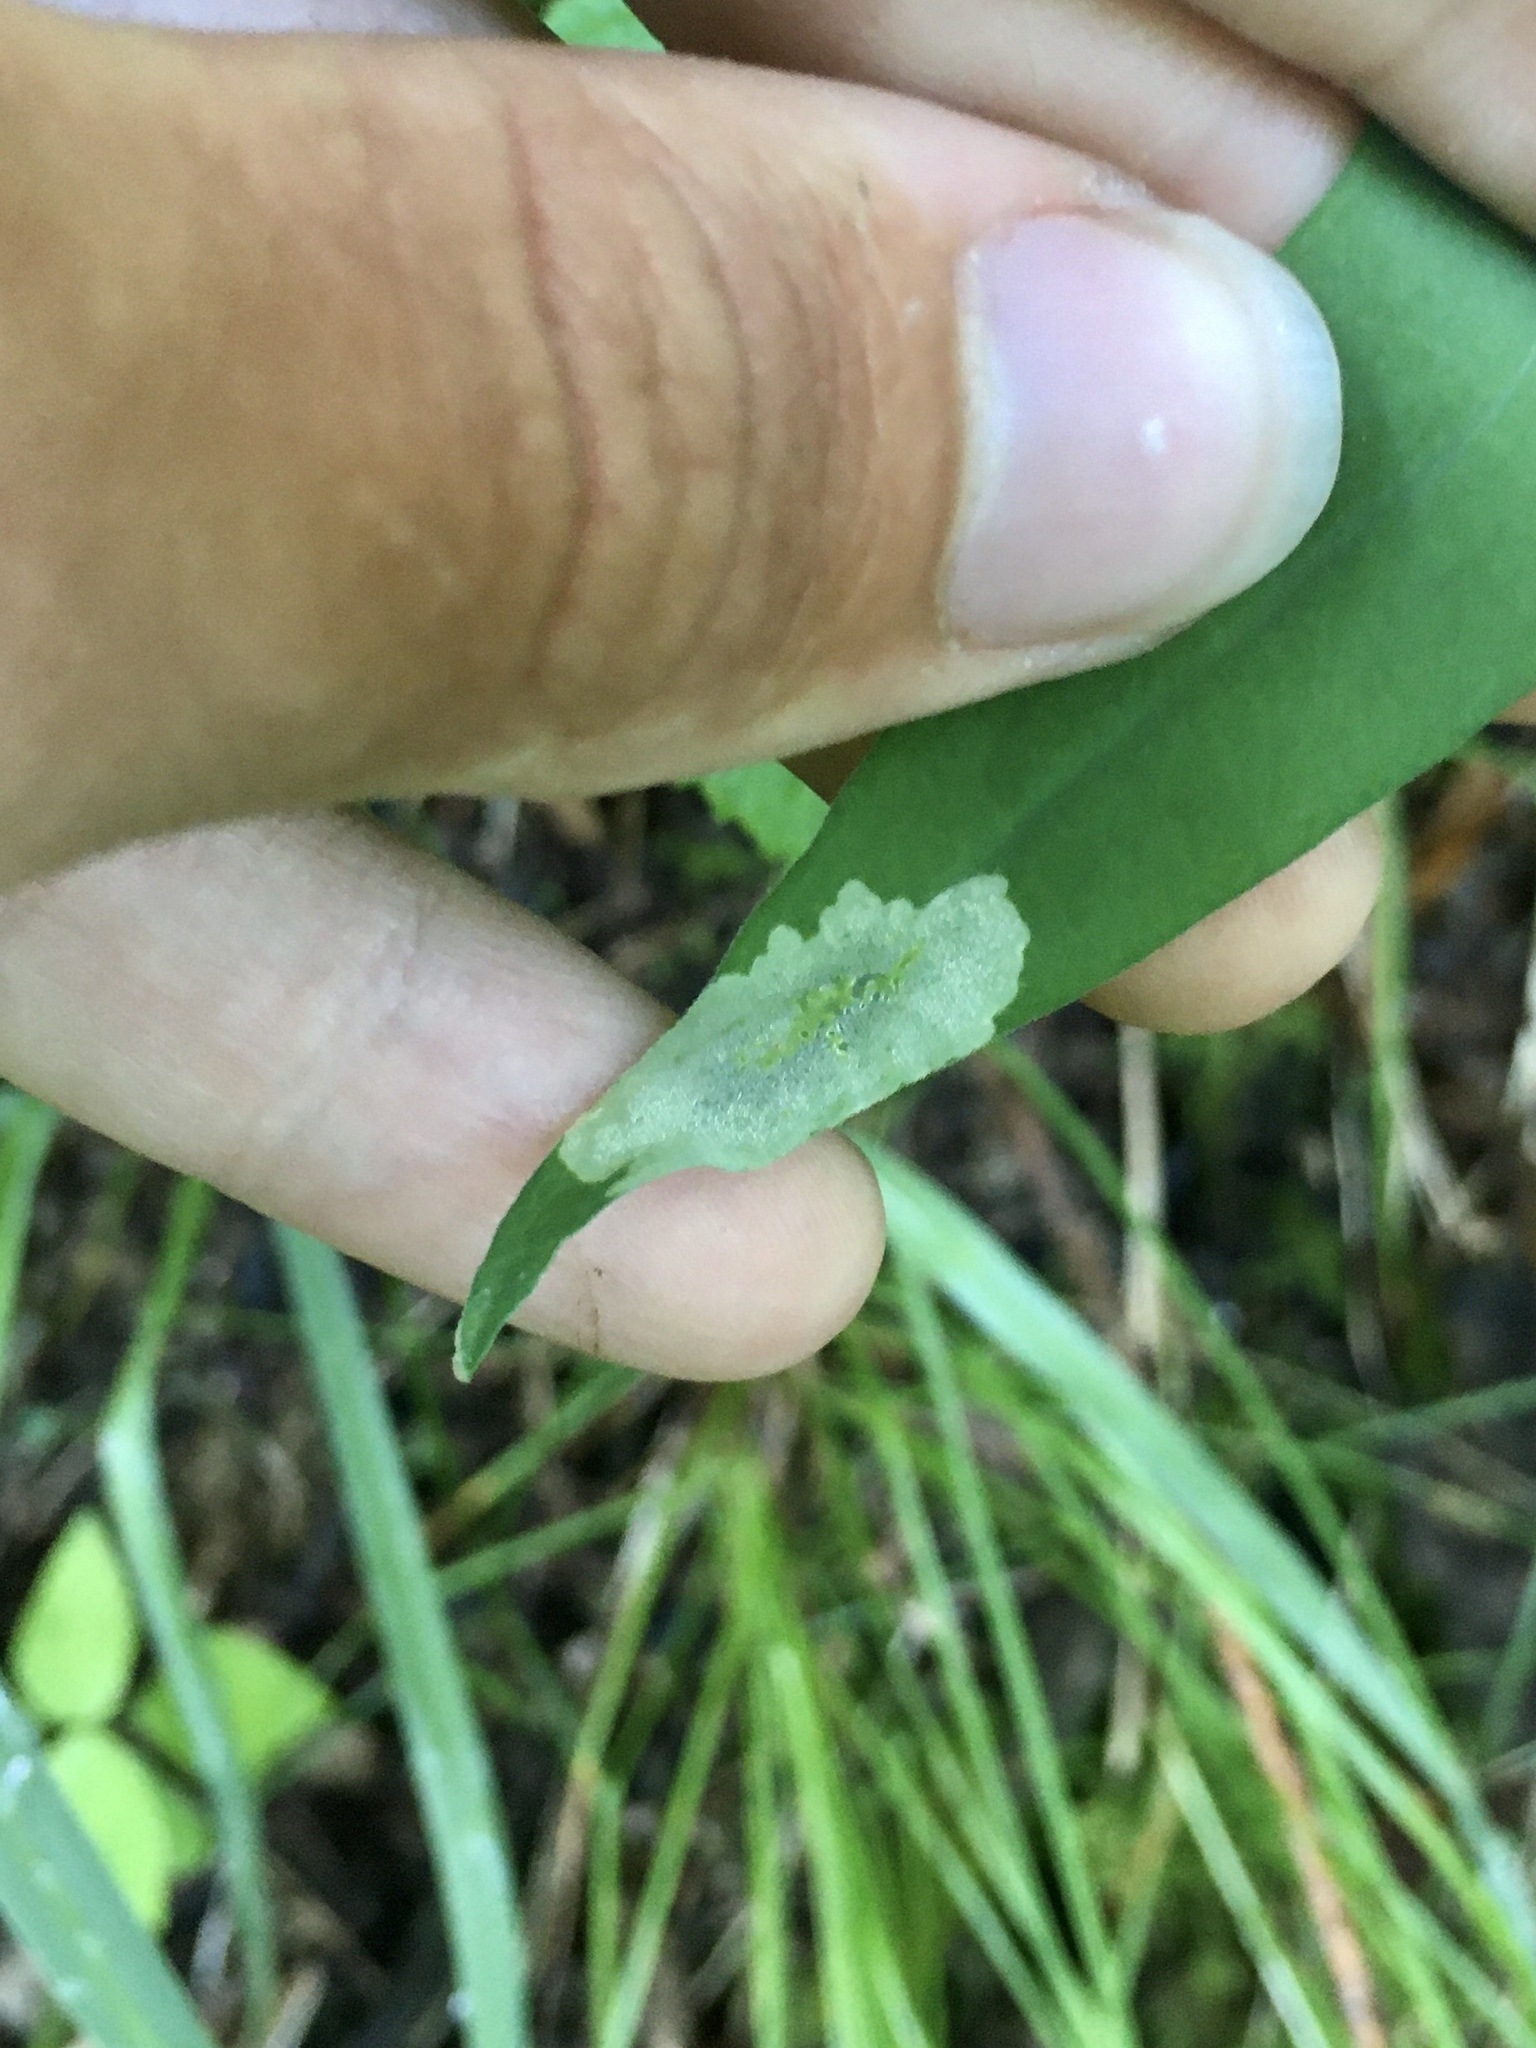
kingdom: Animalia
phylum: Arthropoda
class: Insecta
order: Diptera
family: Agromyzidae
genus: Calycomyza
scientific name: Calycomyza promissa
